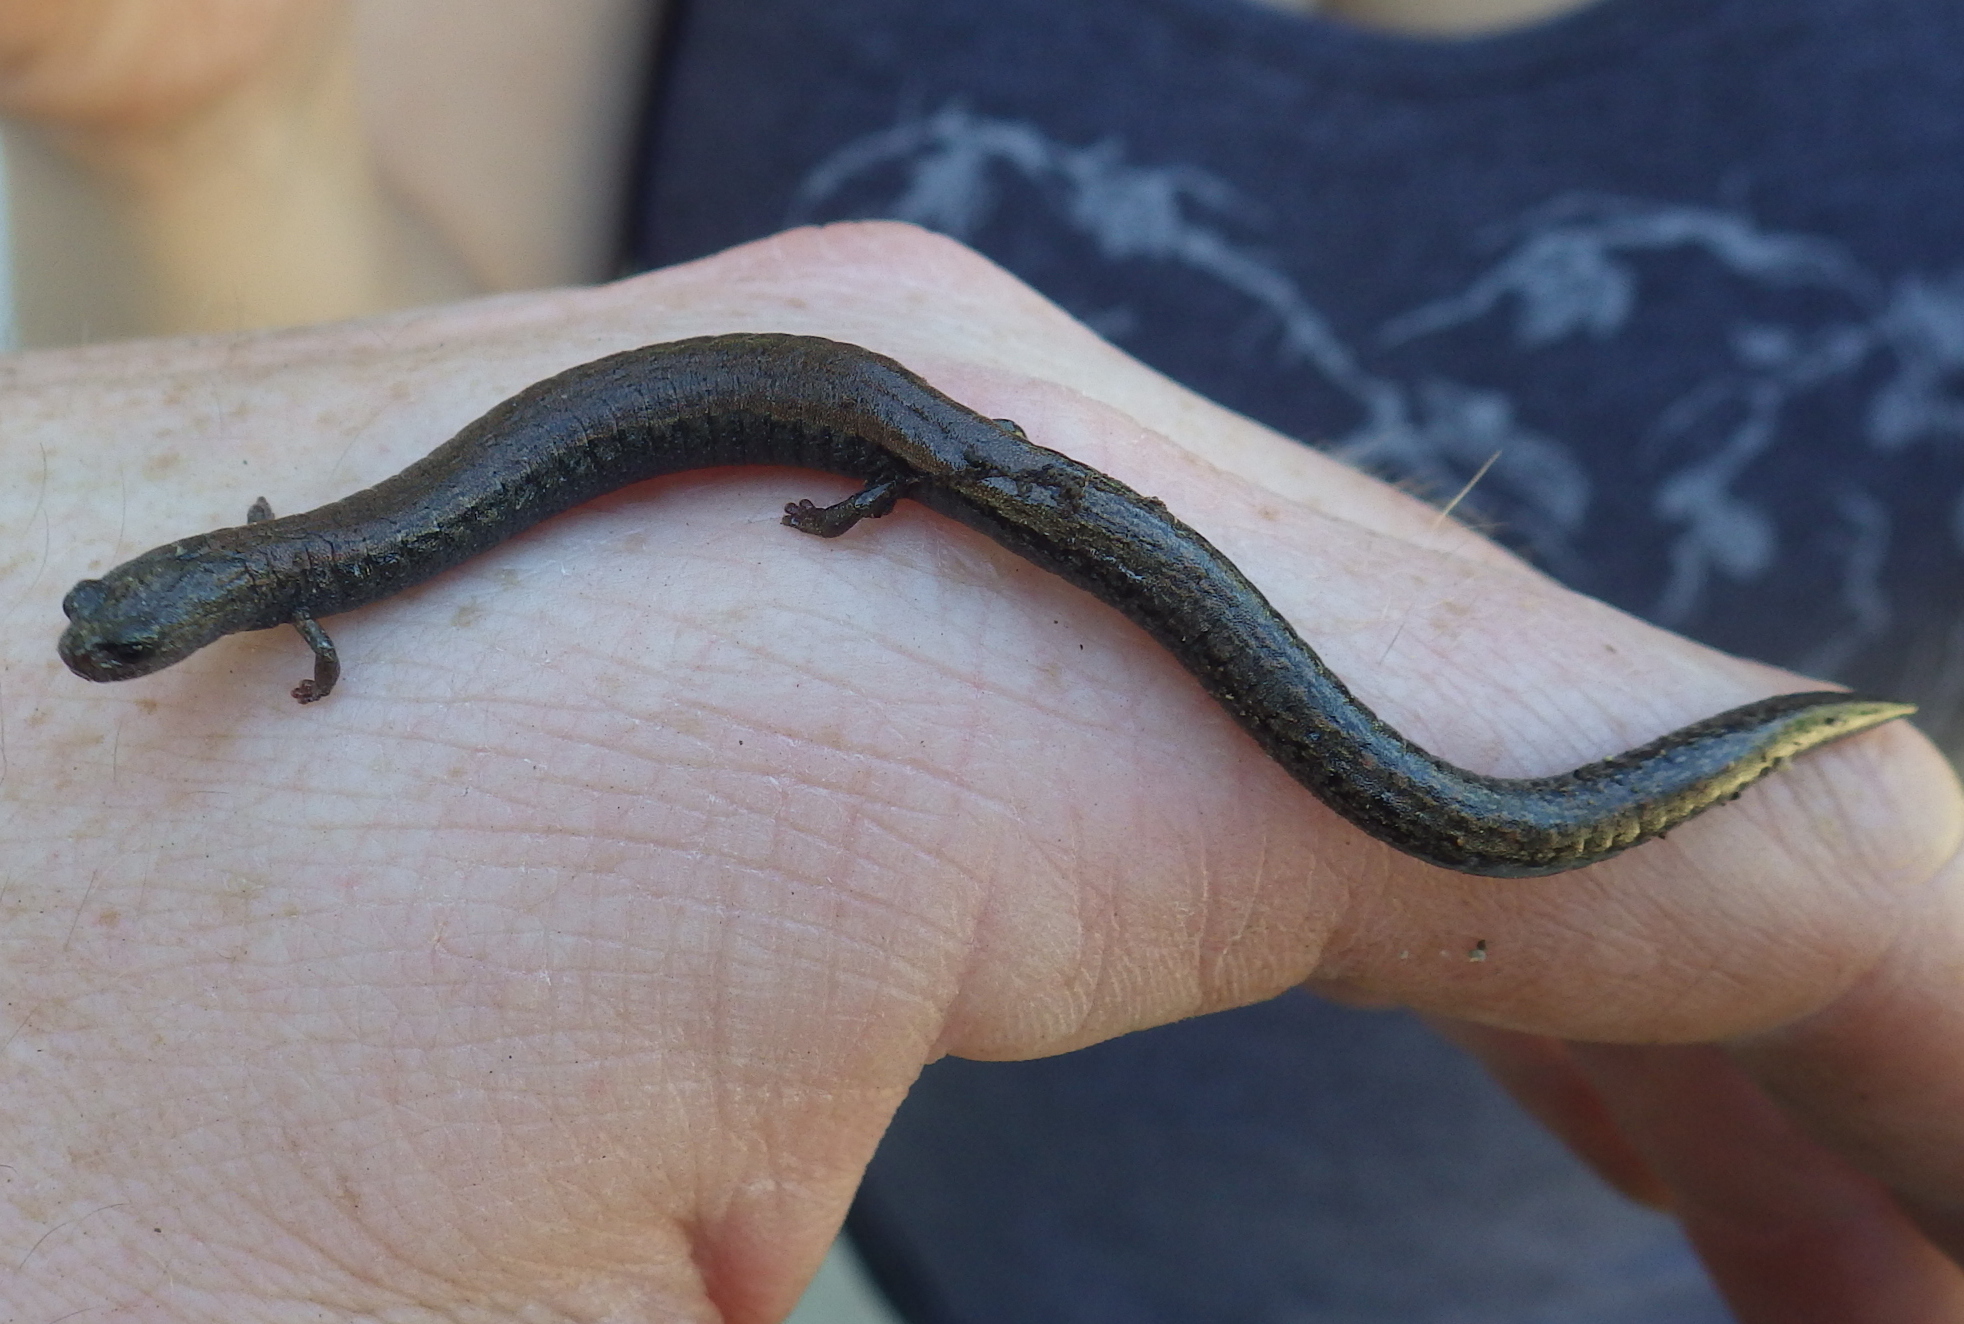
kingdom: Animalia
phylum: Chordata
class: Amphibia
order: Caudata
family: Plethodontidae
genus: Batrachoseps
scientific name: Batrachoseps nigriventris
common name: Black-bellied slender salamander
